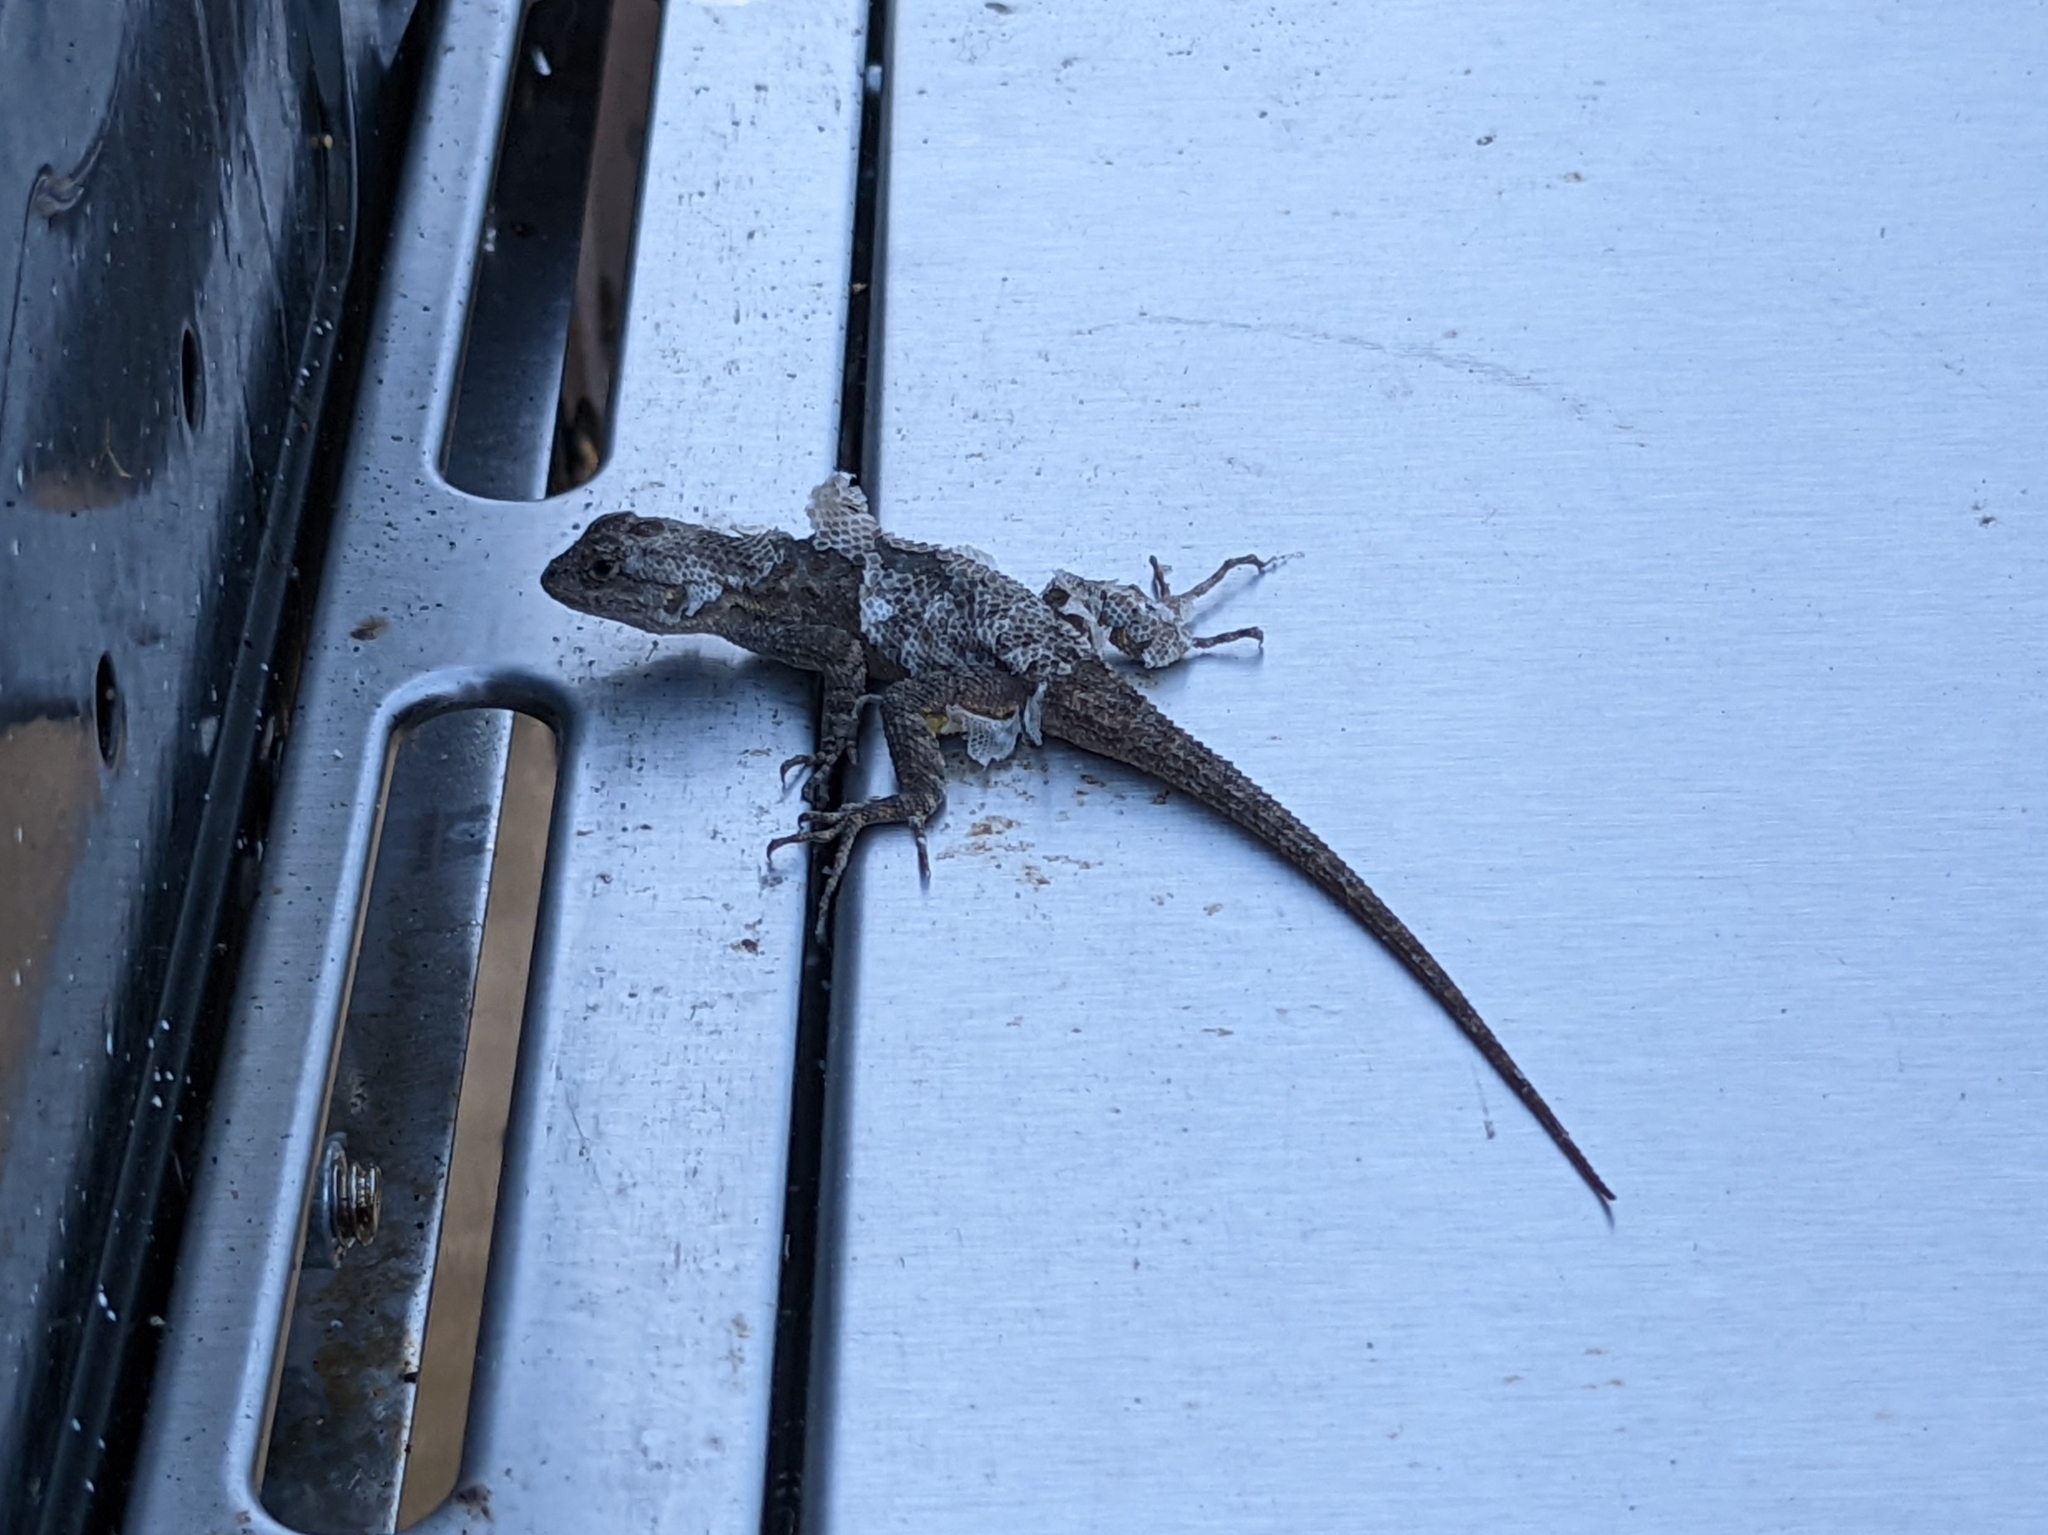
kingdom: Animalia
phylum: Chordata
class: Squamata
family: Phrynosomatidae
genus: Sceloporus
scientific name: Sceloporus occidentalis
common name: Western fence lizard
